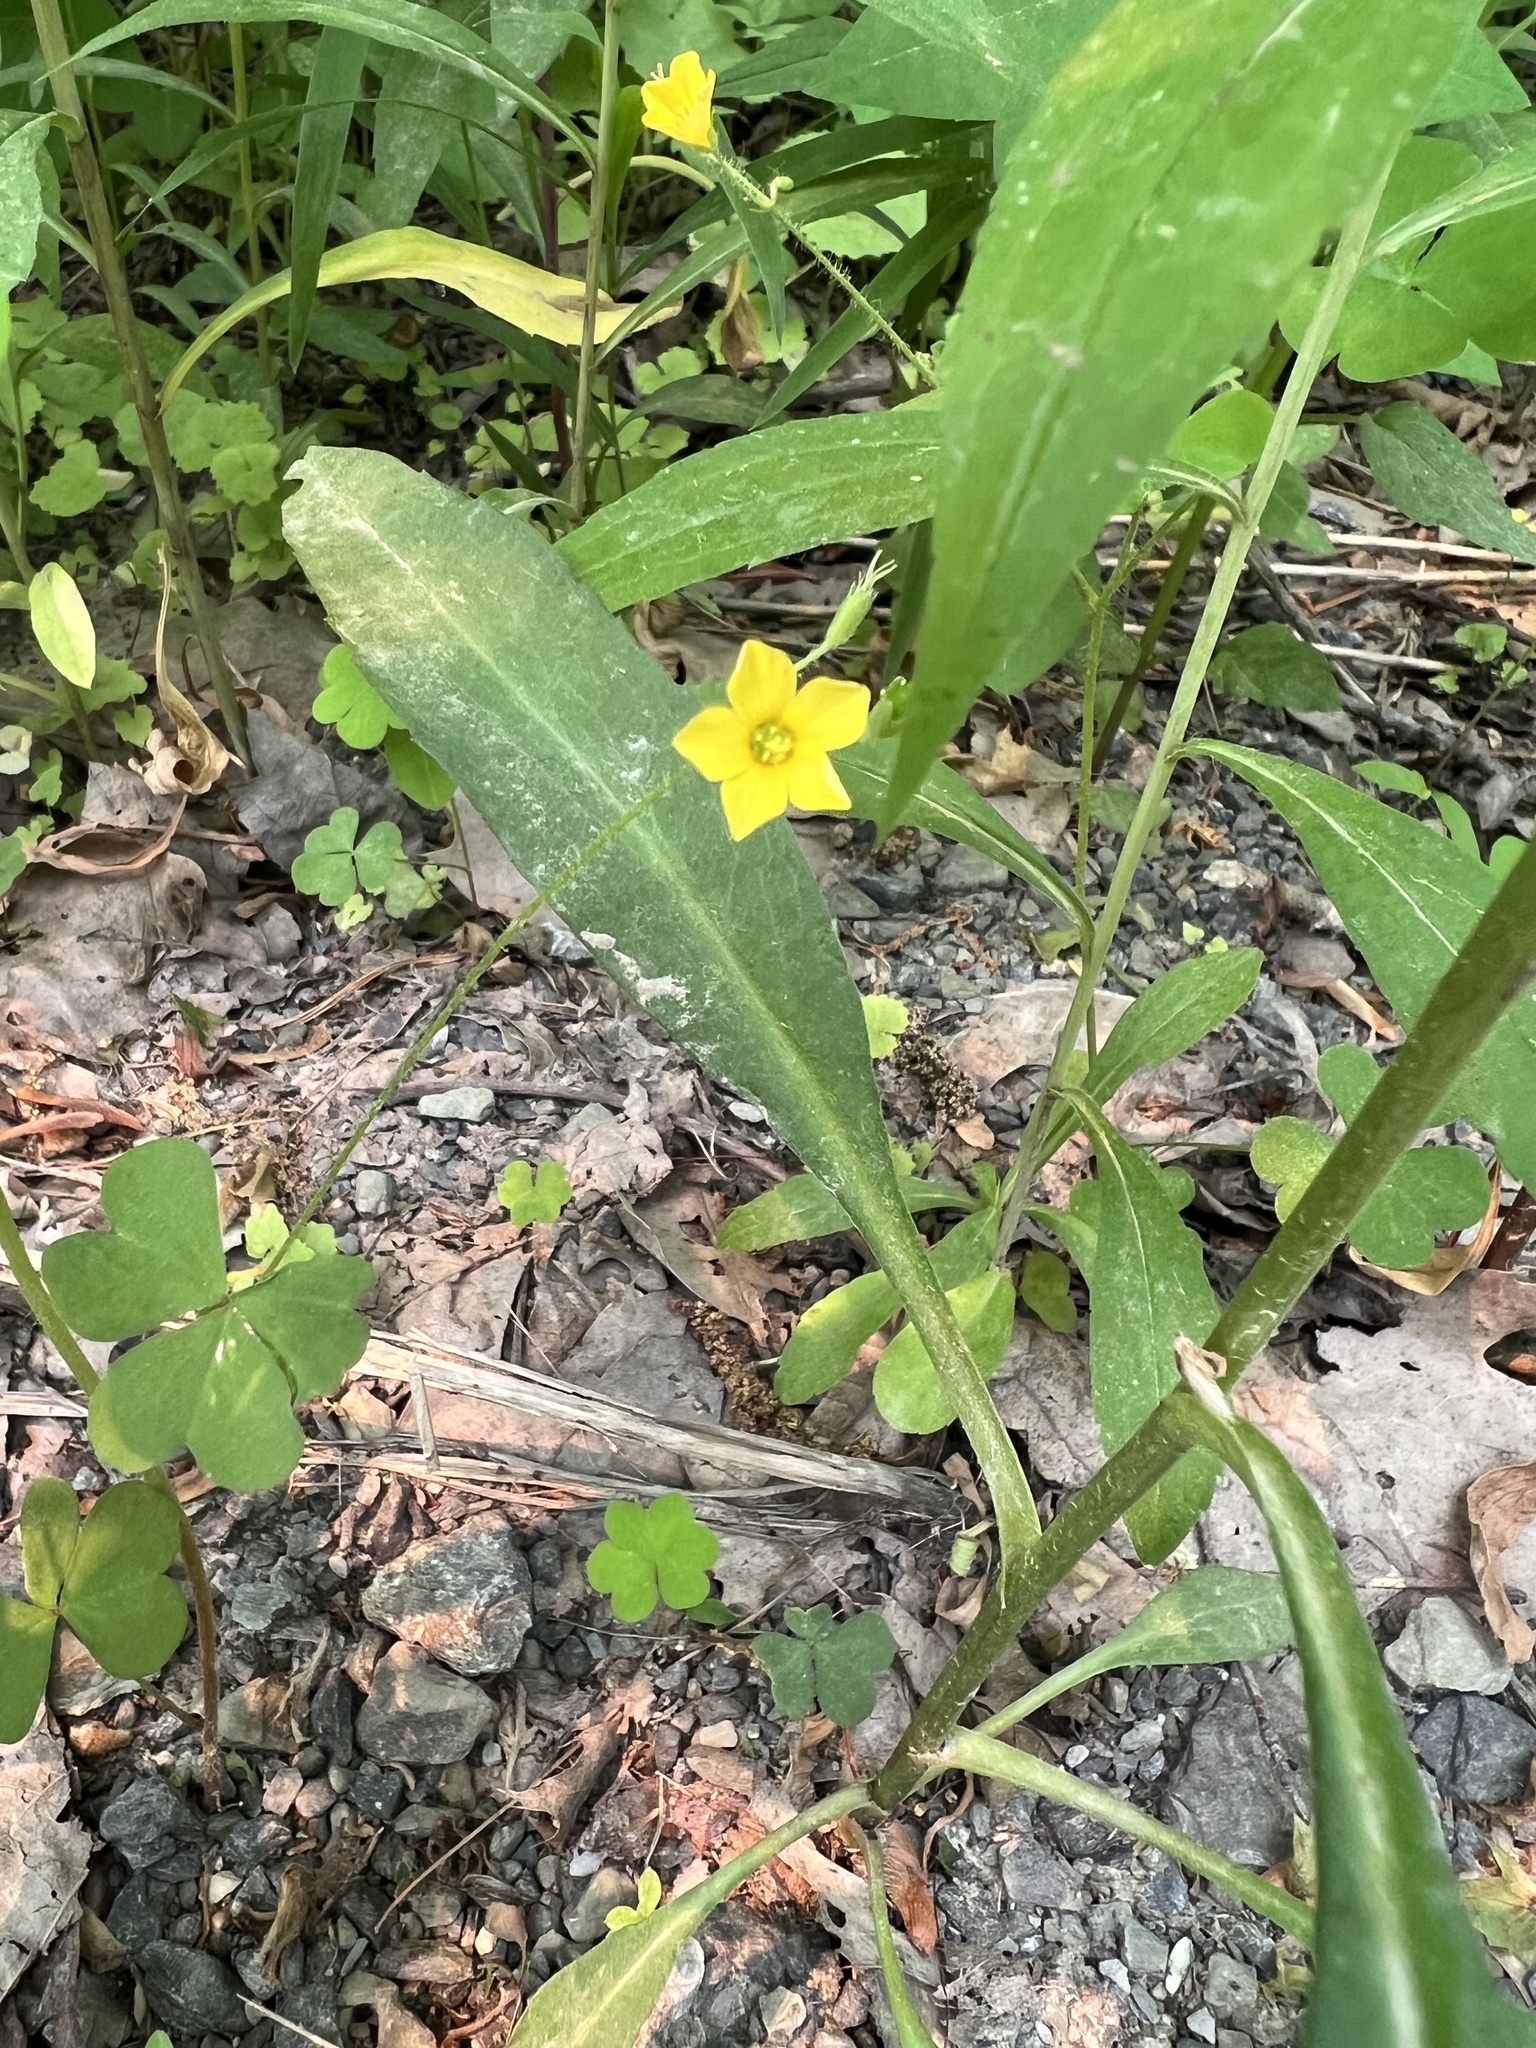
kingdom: Plantae
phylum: Tracheophyta
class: Magnoliopsida
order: Oxalidales
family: Oxalidaceae
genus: Oxalis
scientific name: Oxalis stricta
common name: Upright yellow-sorrel
